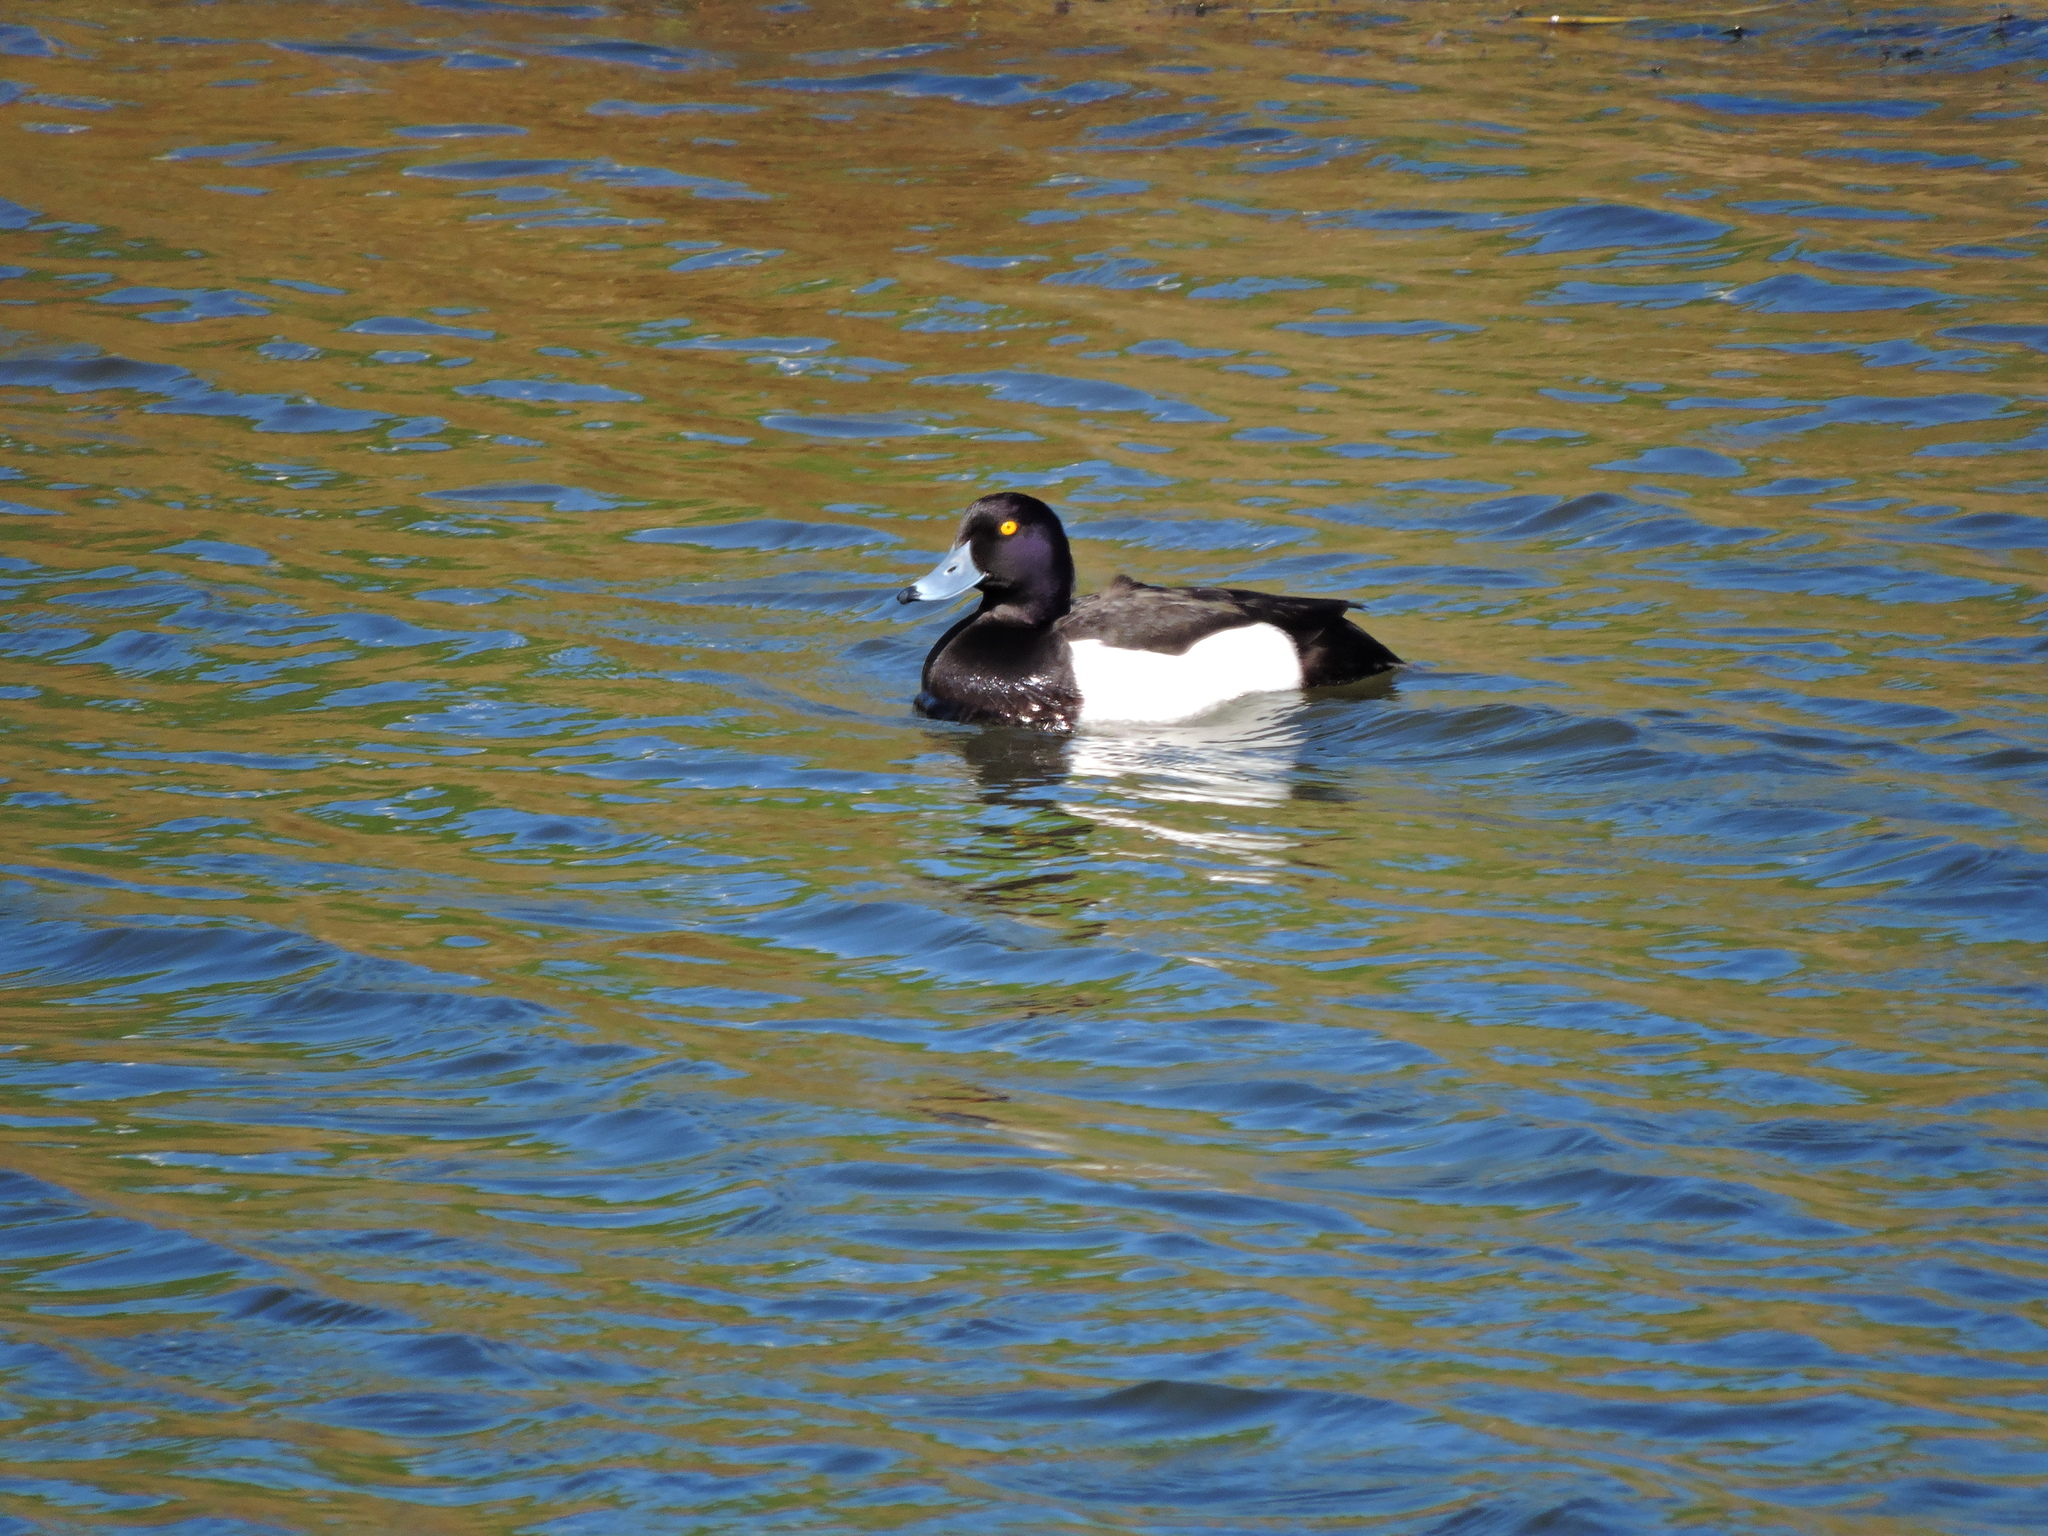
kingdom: Animalia
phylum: Chordata
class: Aves
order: Anseriformes
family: Anatidae
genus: Aythya
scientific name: Aythya fuligula
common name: Tufted duck
